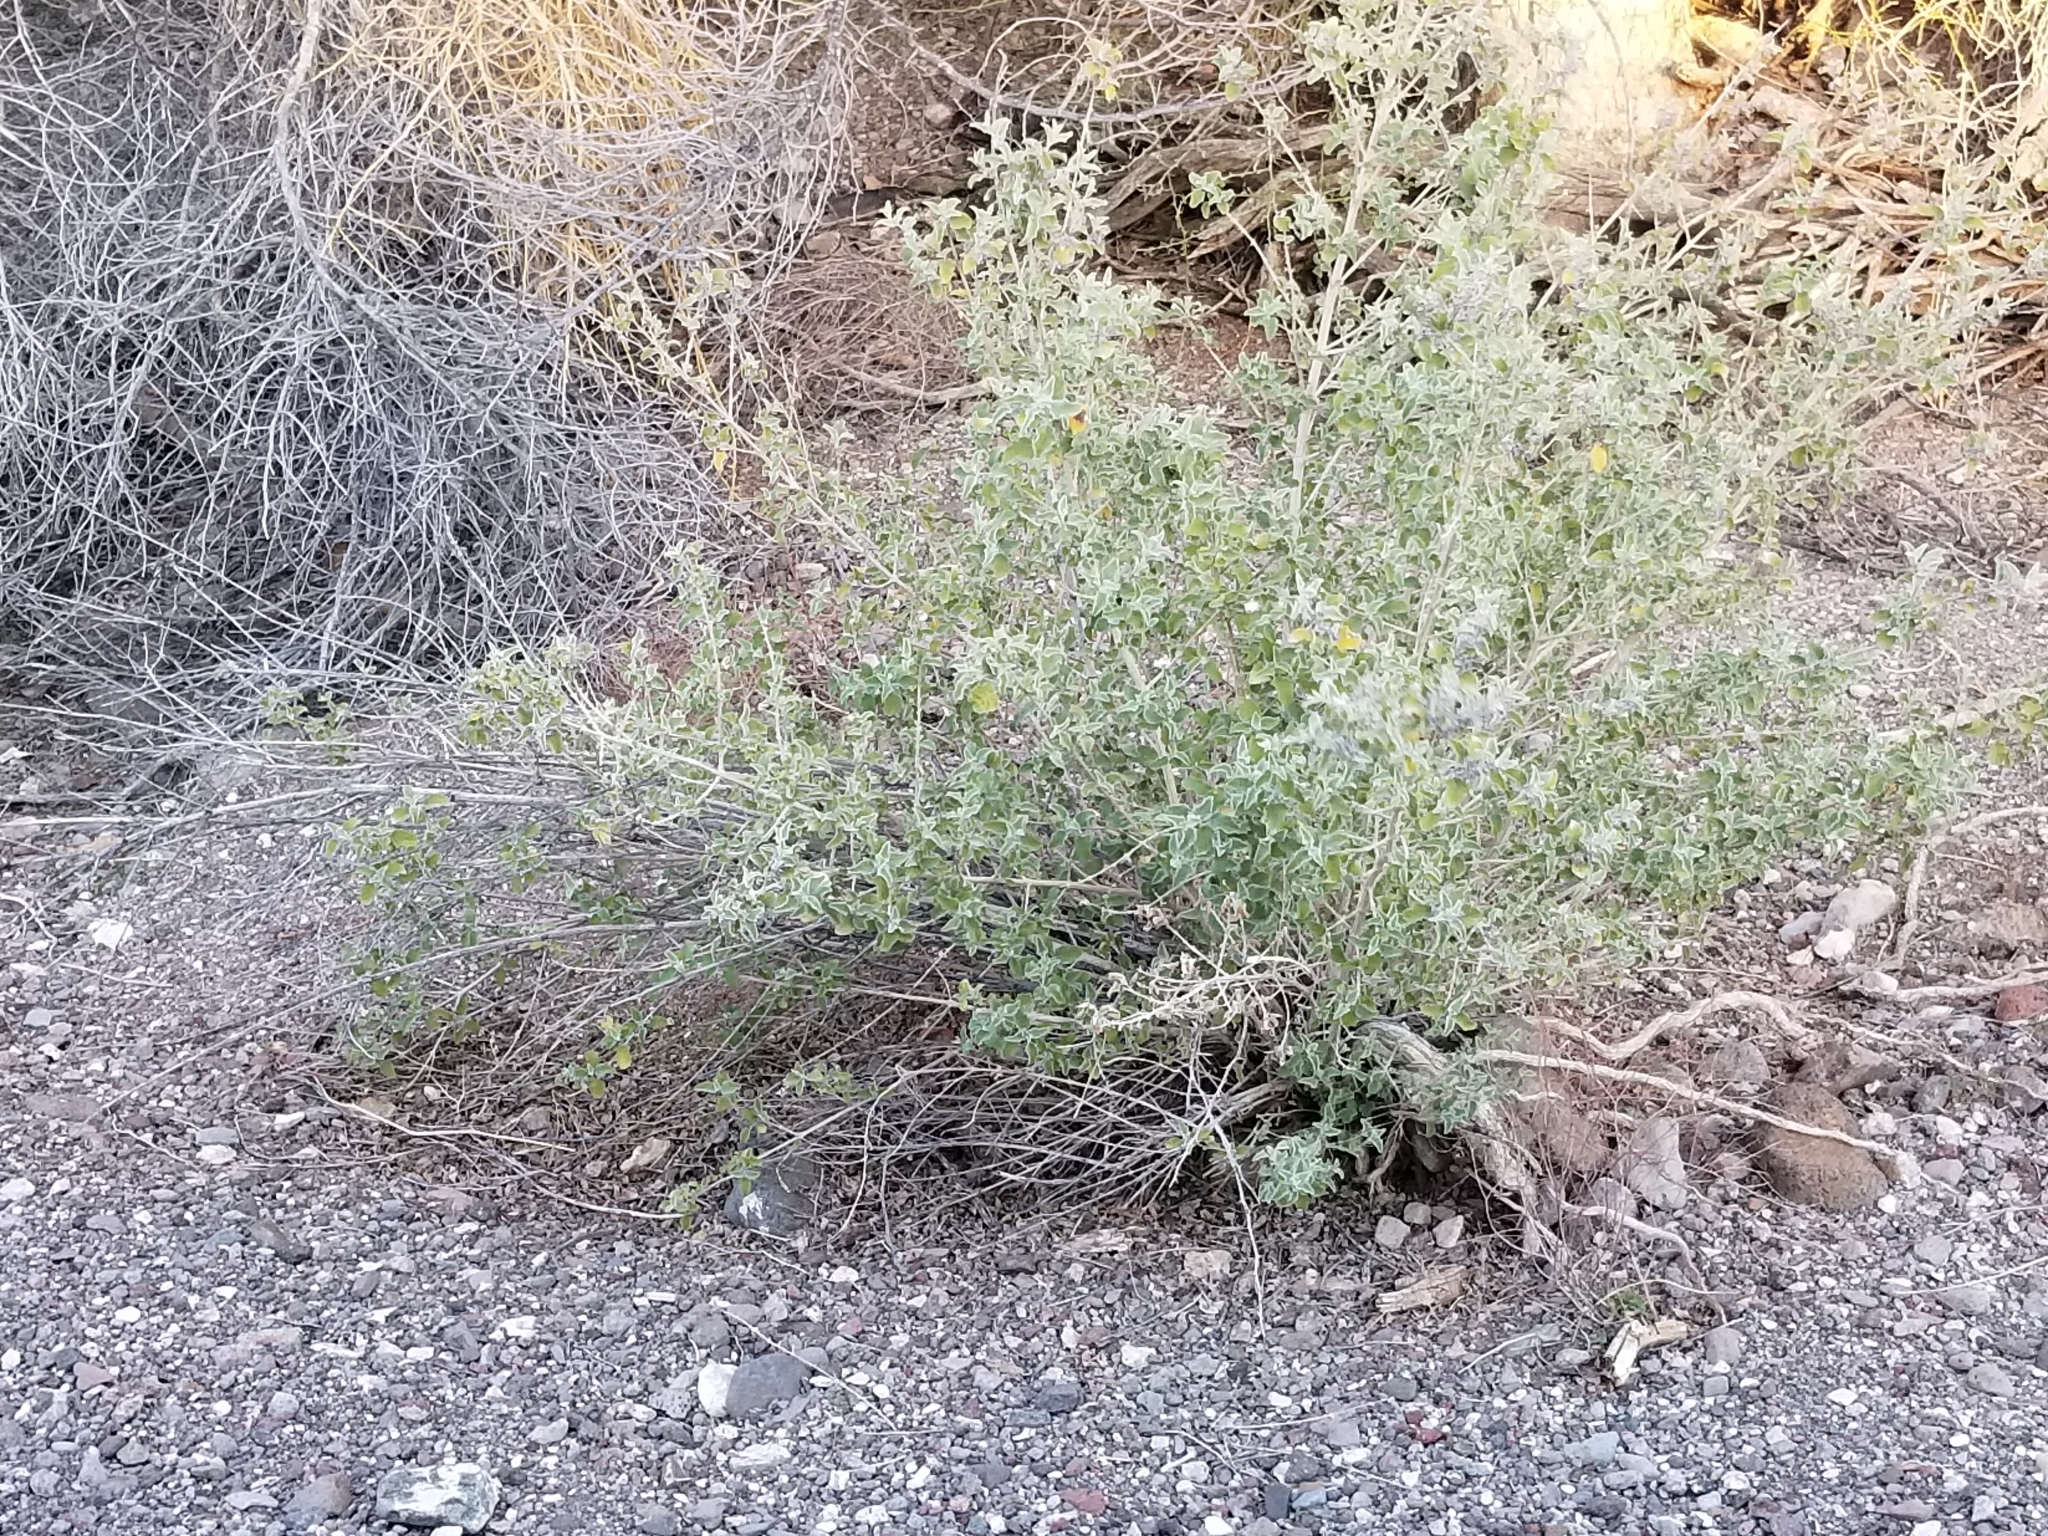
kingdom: Plantae
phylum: Tracheophyta
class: Magnoliopsida
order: Lamiales
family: Lamiaceae
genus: Condea
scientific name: Condea emoryi
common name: Chia
